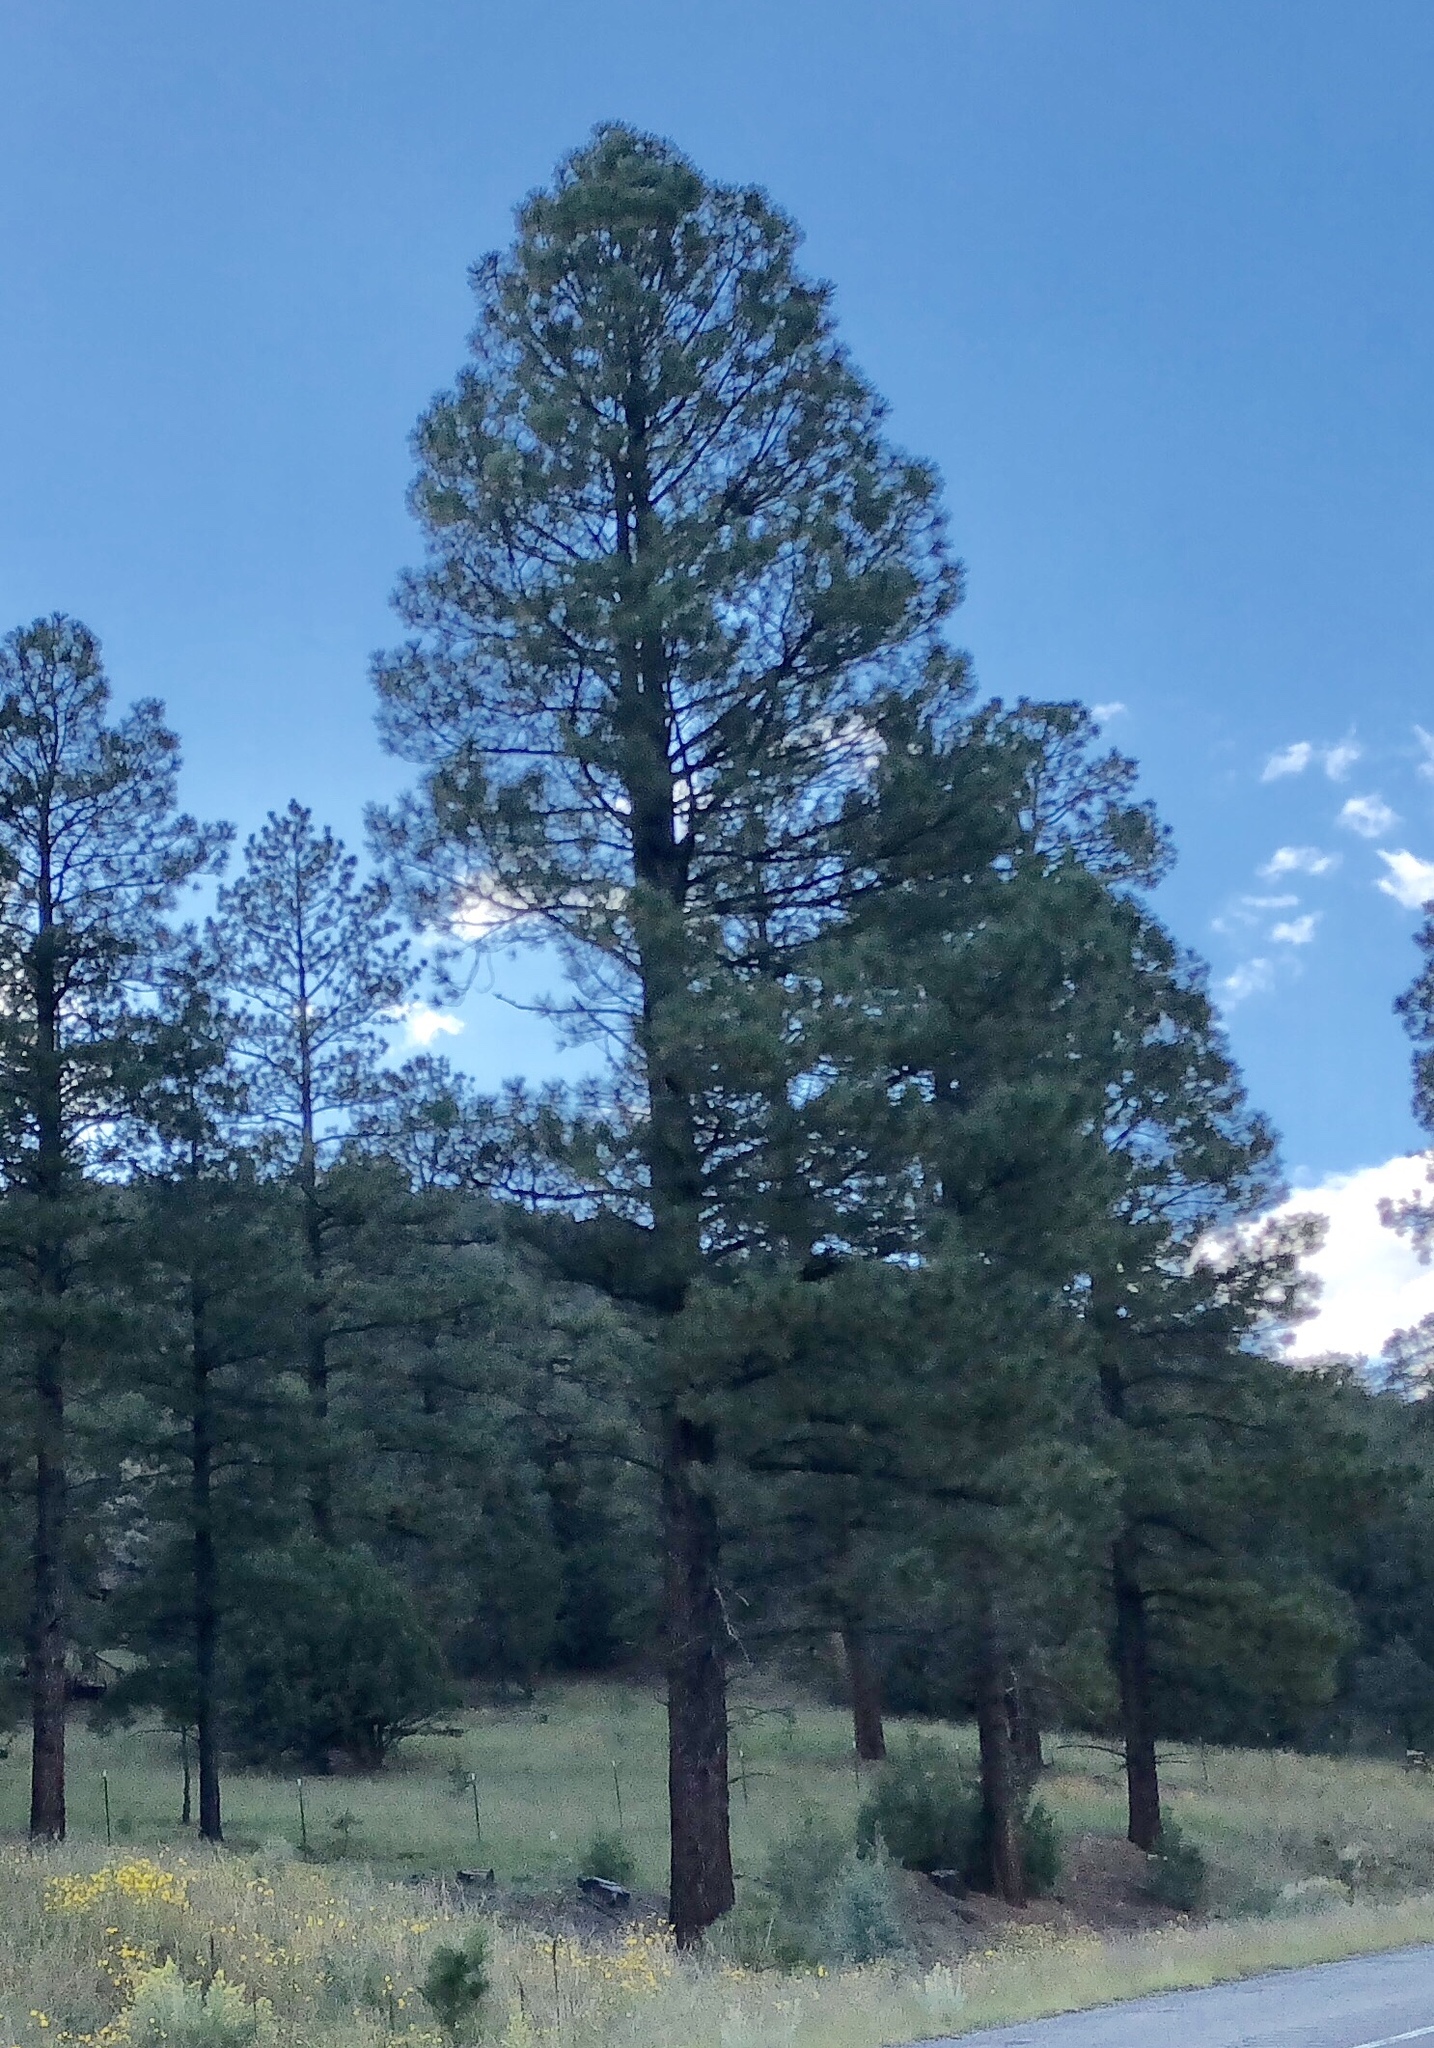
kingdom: Plantae
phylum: Tracheophyta
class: Pinopsida
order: Pinales
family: Pinaceae
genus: Pinus
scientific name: Pinus ponderosa
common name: Western yellow-pine
